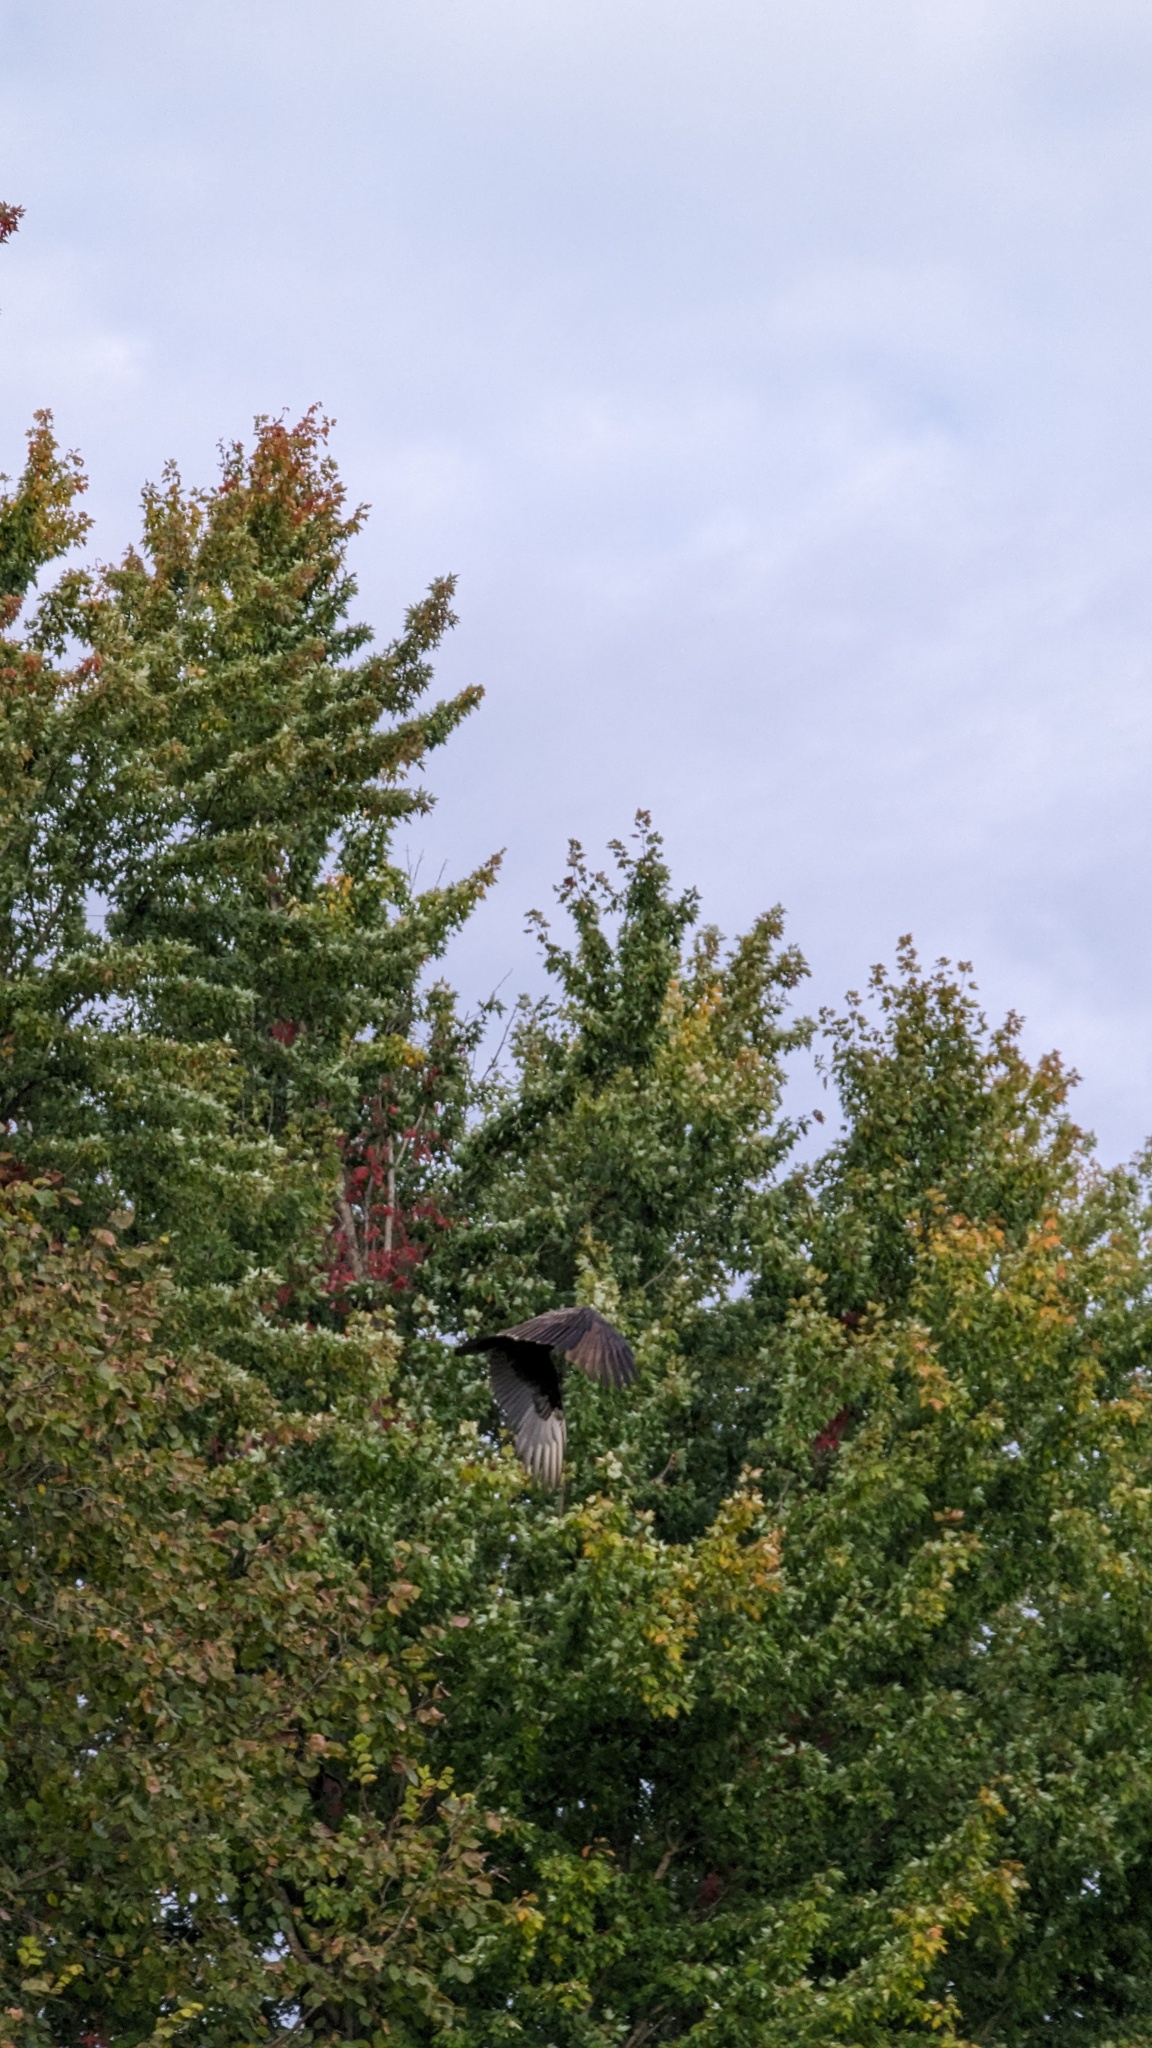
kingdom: Animalia
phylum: Chordata
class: Aves
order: Accipitriformes
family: Cathartidae
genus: Cathartes
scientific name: Cathartes aura
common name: Turkey vulture
